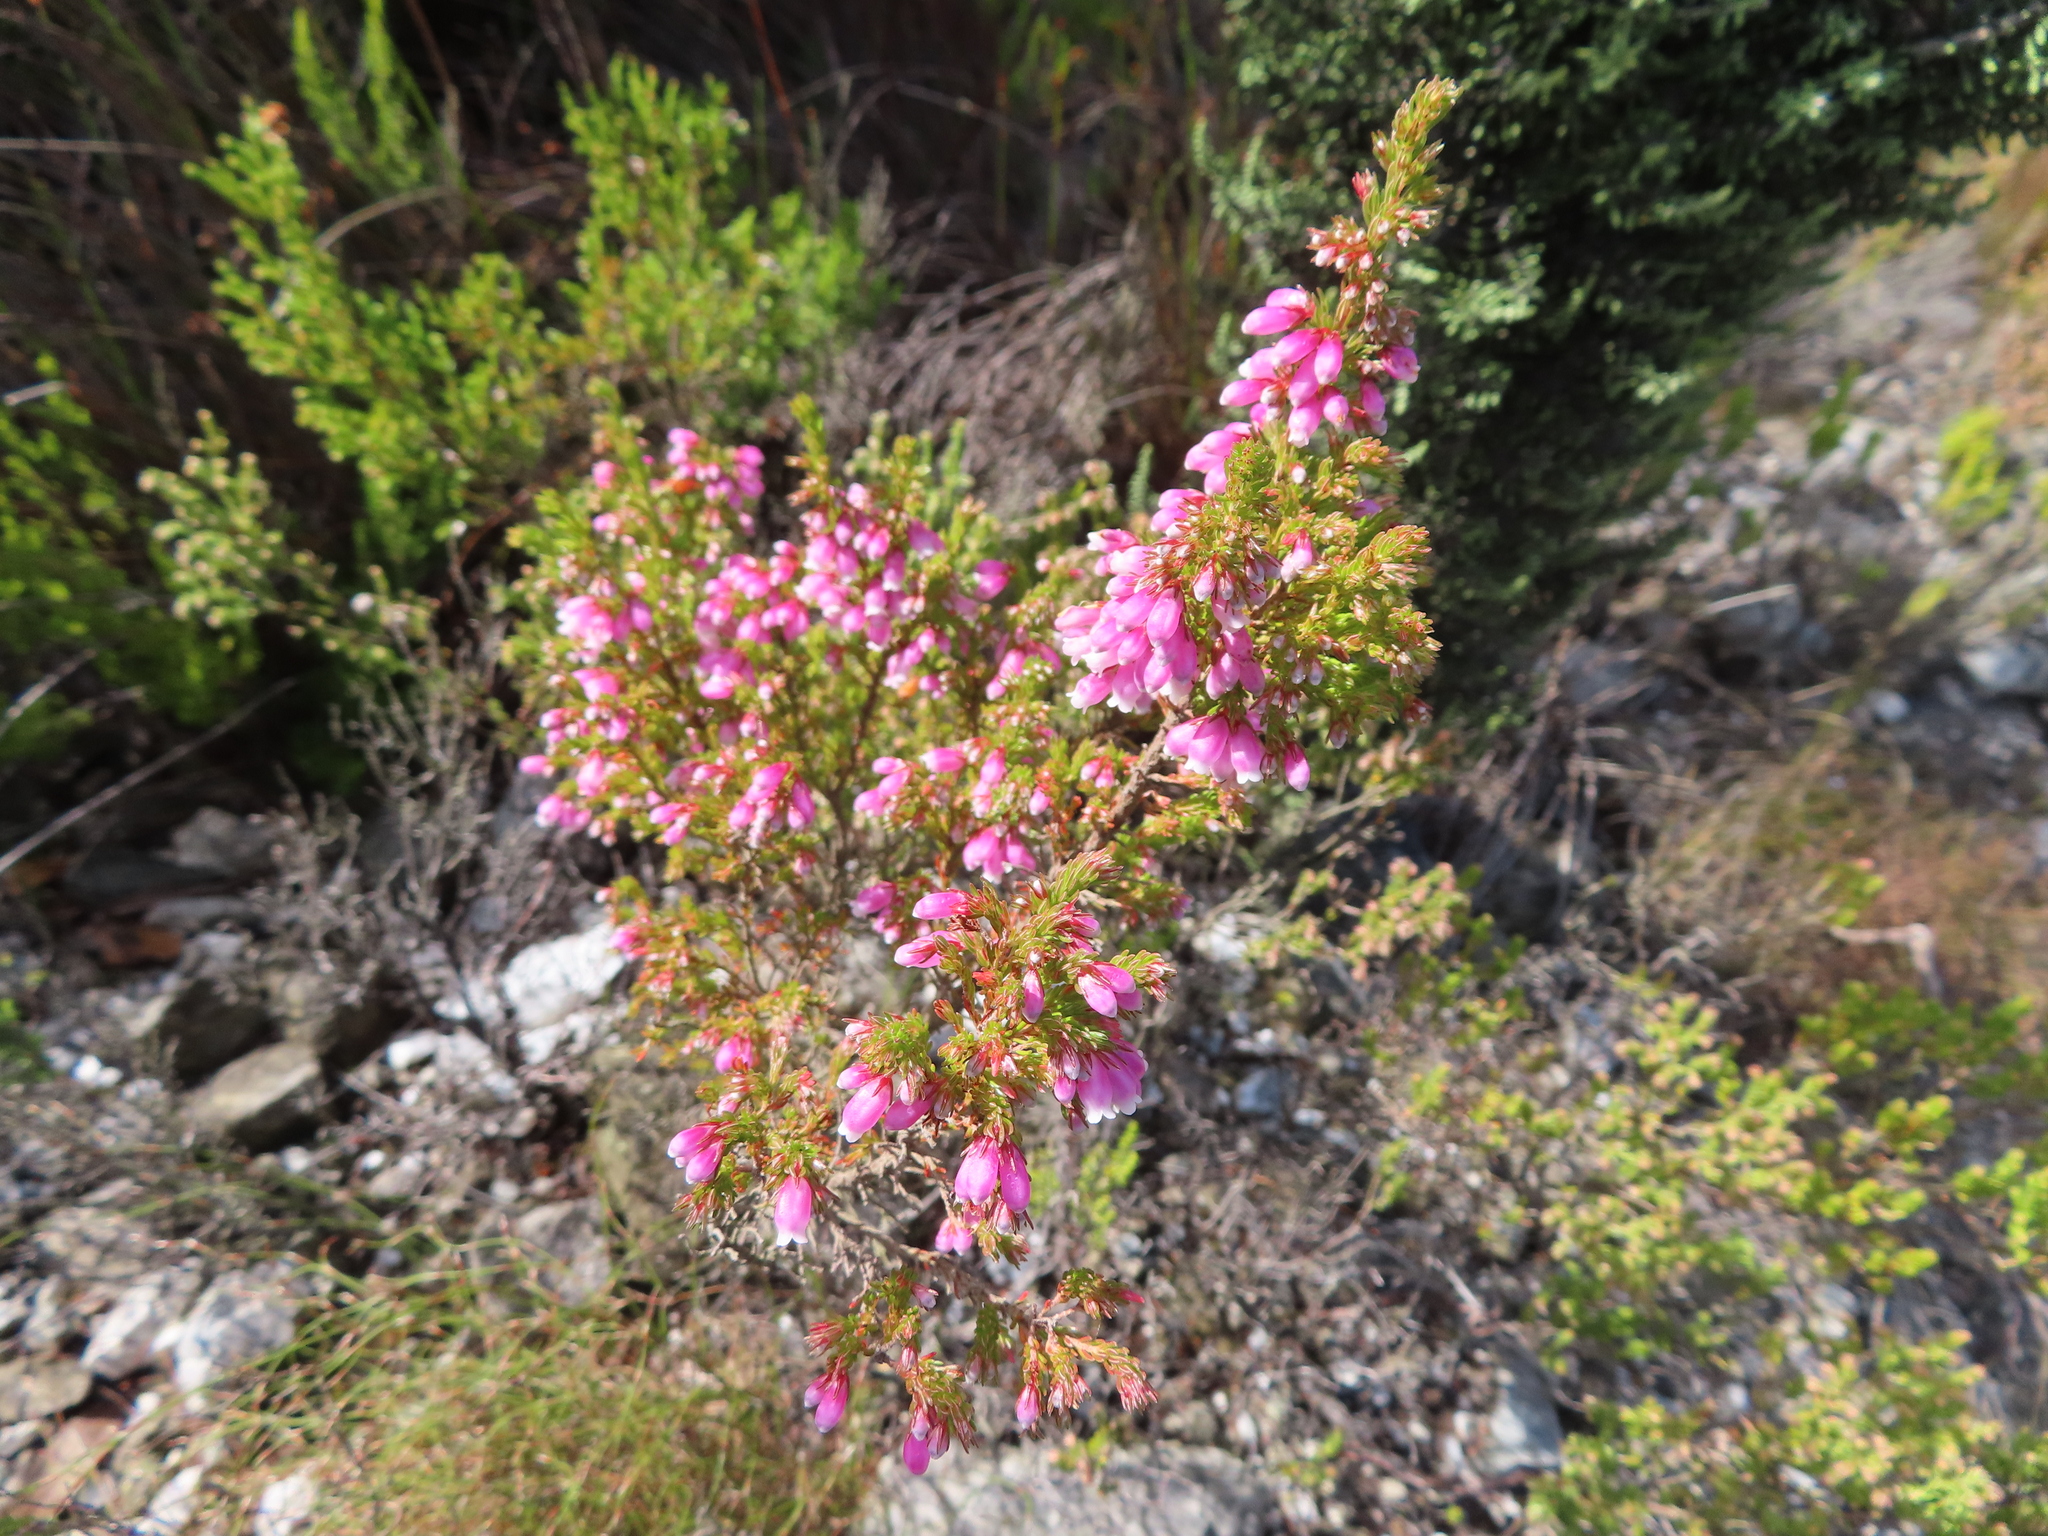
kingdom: Plantae
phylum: Tracheophyta
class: Magnoliopsida
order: Ericales
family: Ericaceae
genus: Erica
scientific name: Erica sitiens
